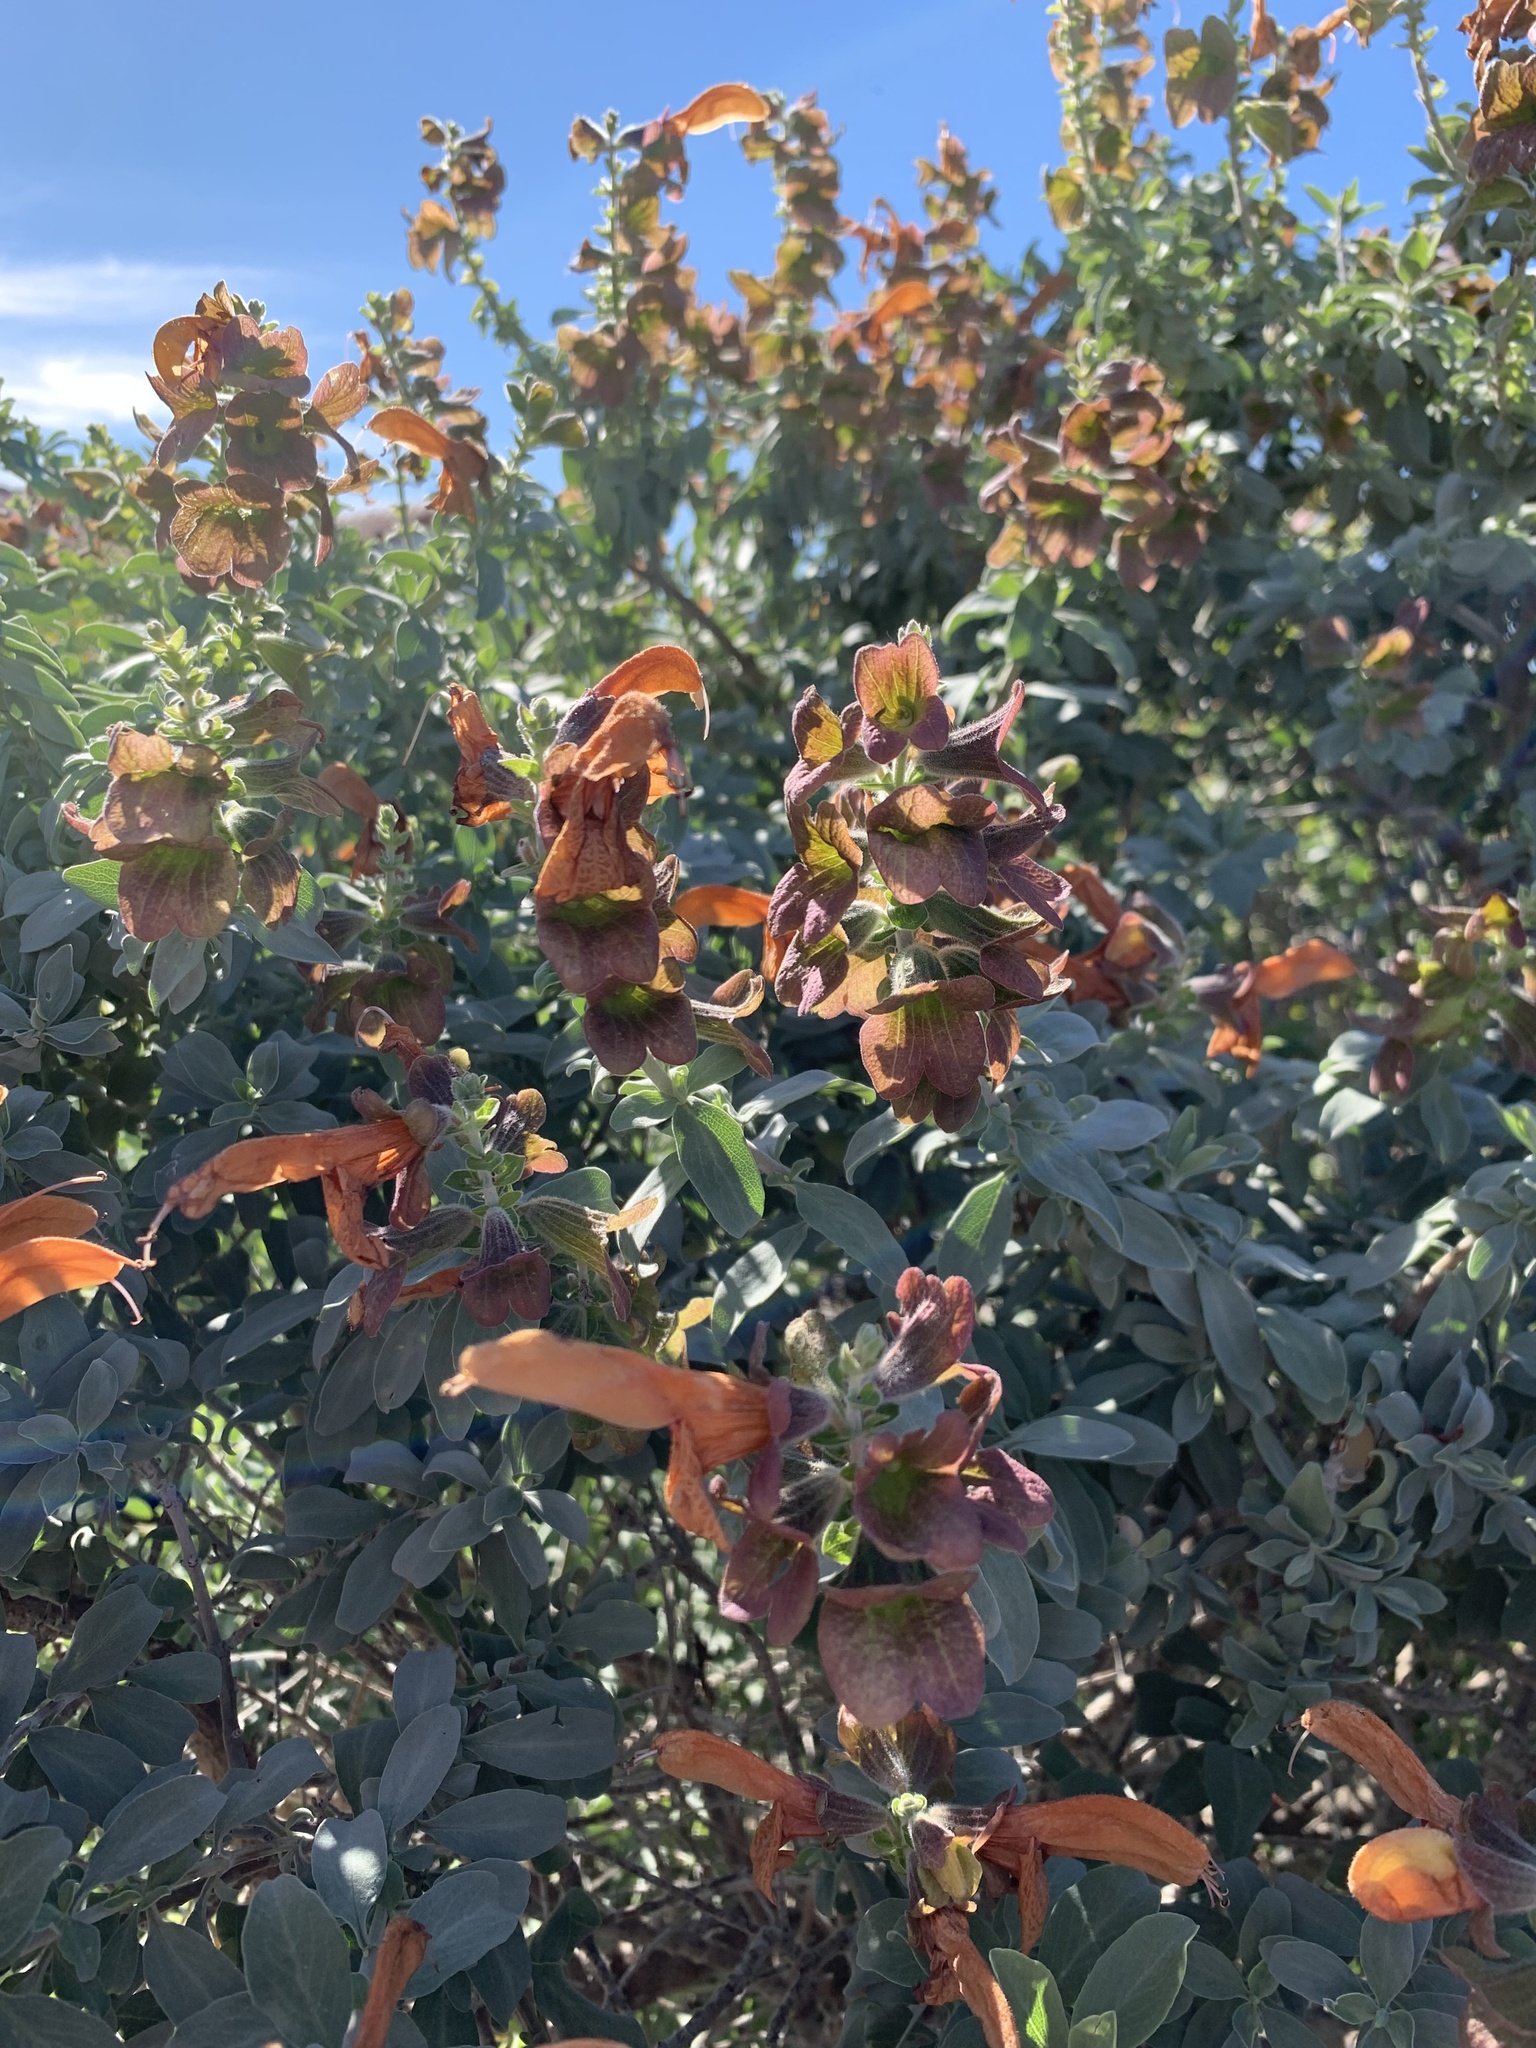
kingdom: Plantae
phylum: Tracheophyta
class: Magnoliopsida
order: Lamiales
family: Lamiaceae
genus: Salvia
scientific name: Salvia aurea
